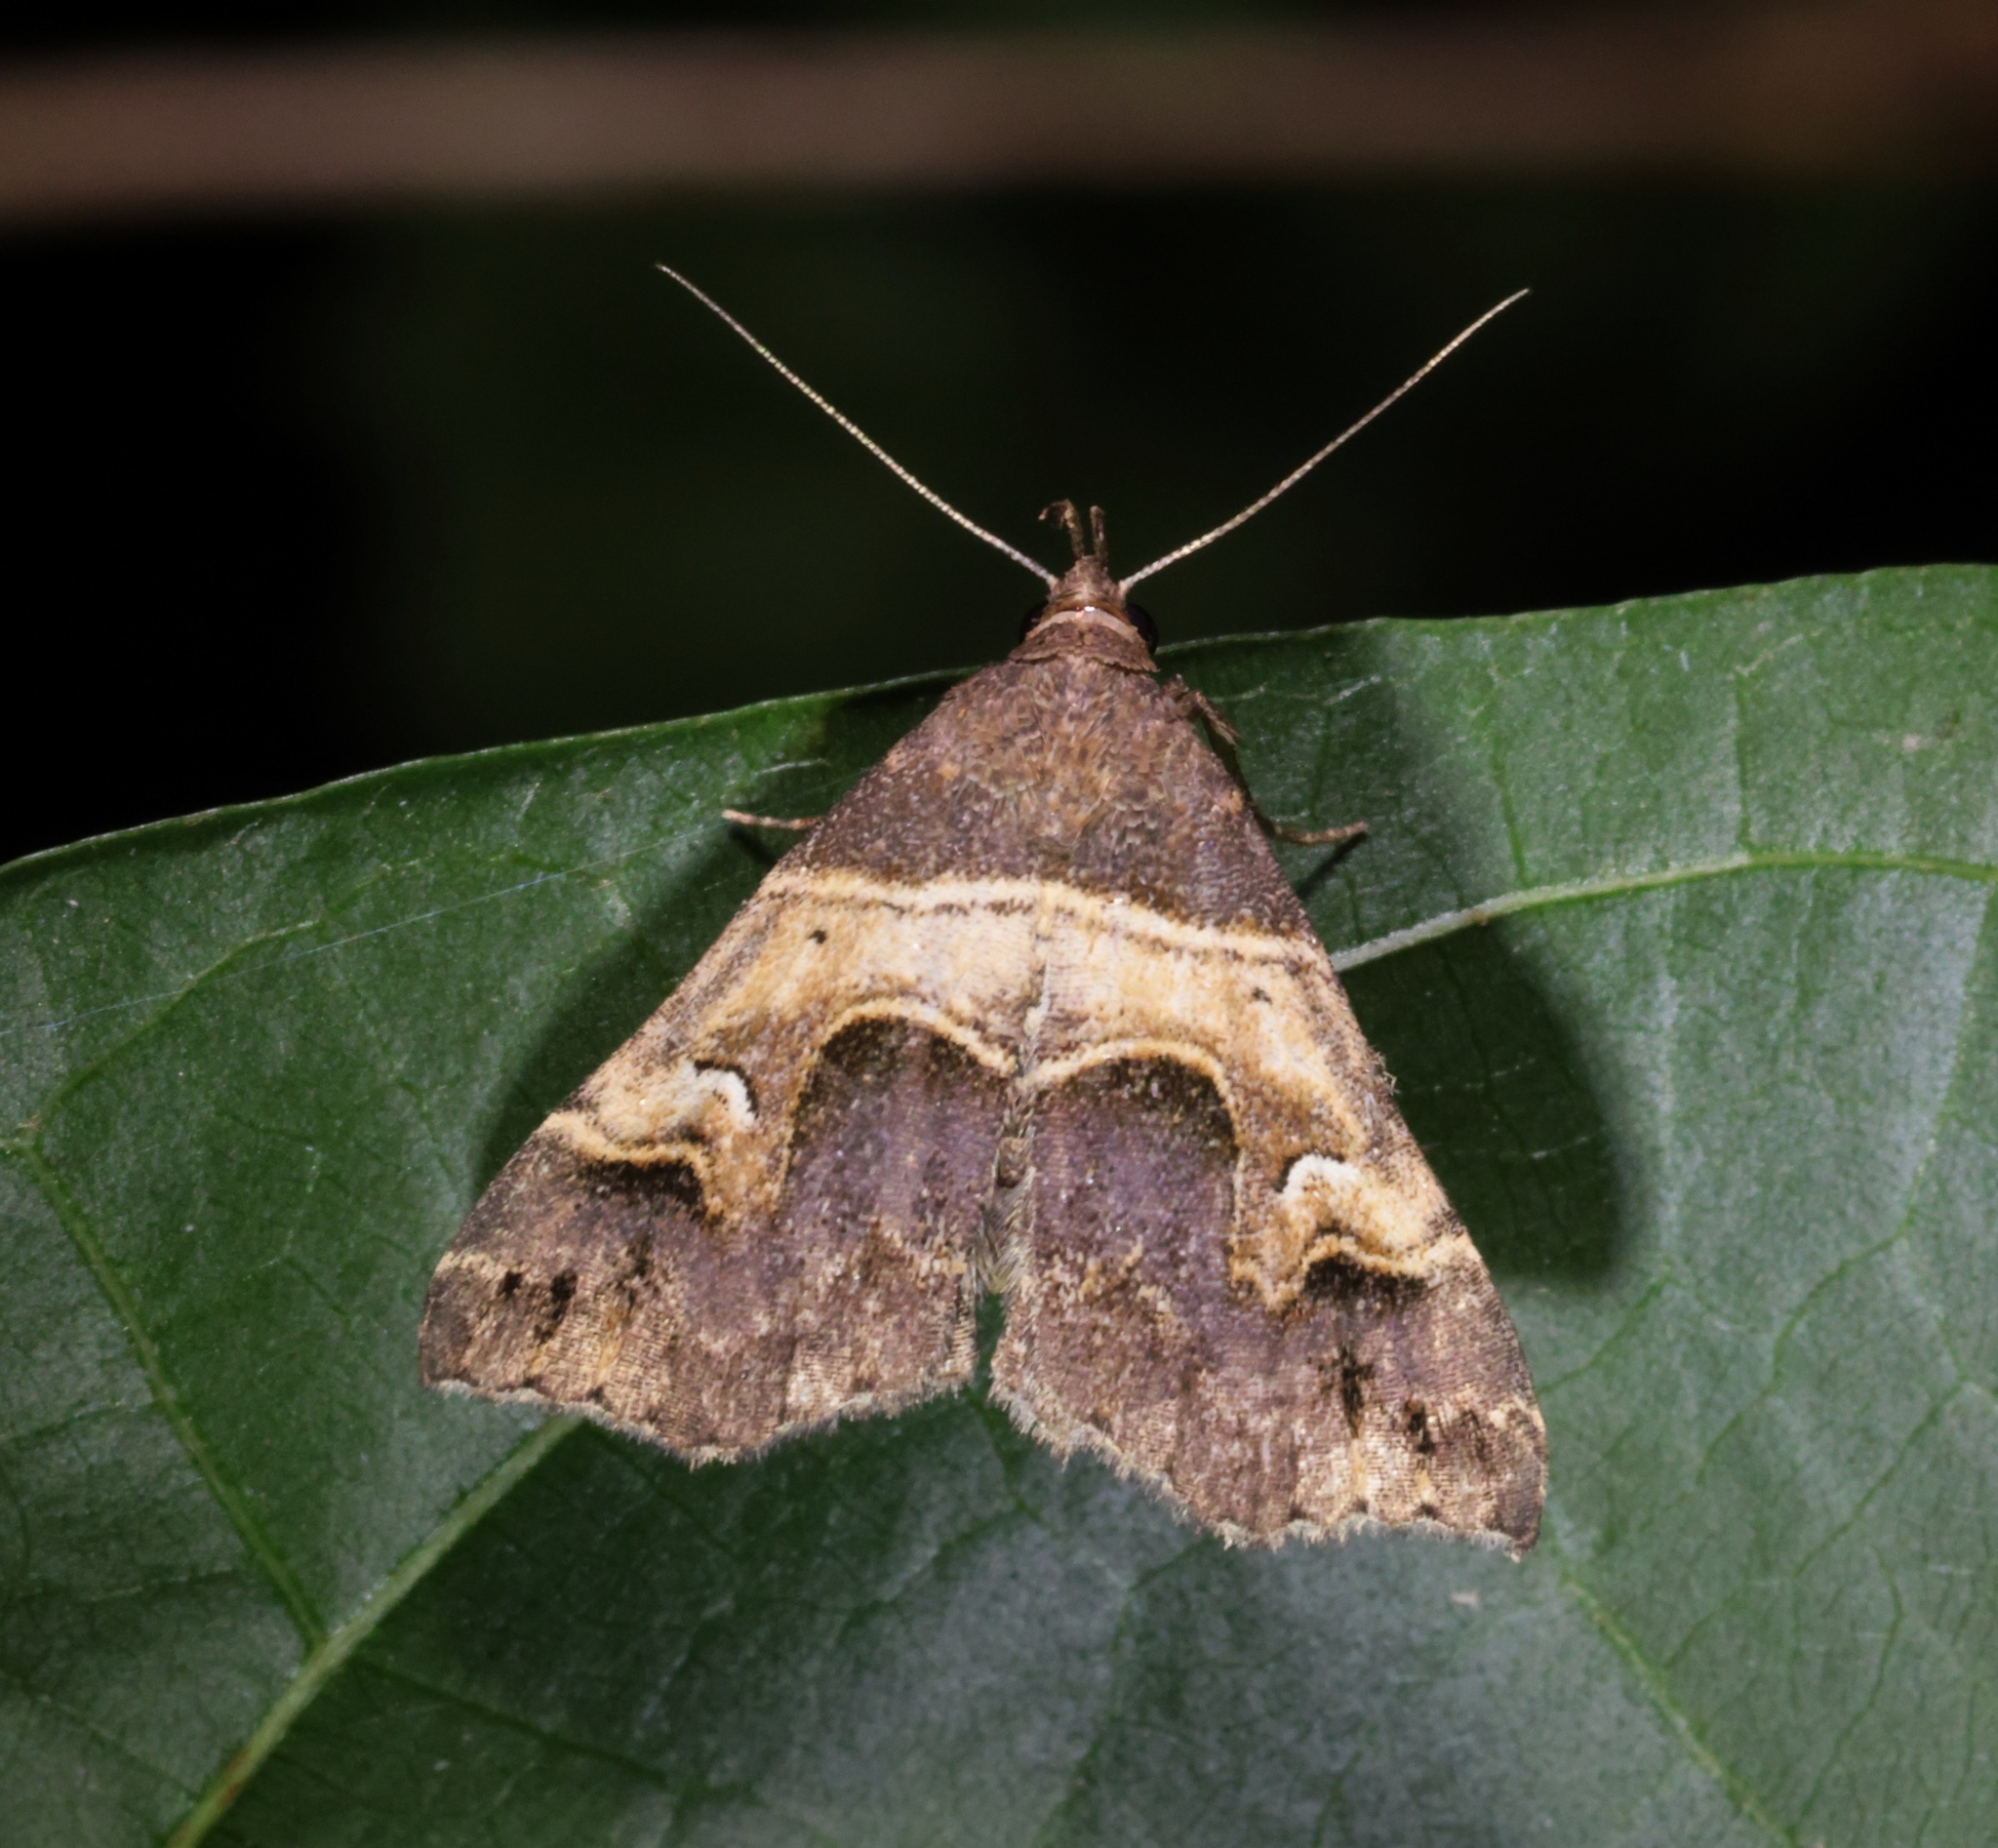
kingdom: Animalia
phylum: Arthropoda
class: Insecta
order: Lepidoptera
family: Erebidae
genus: Bertula
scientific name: Bertula retracta
